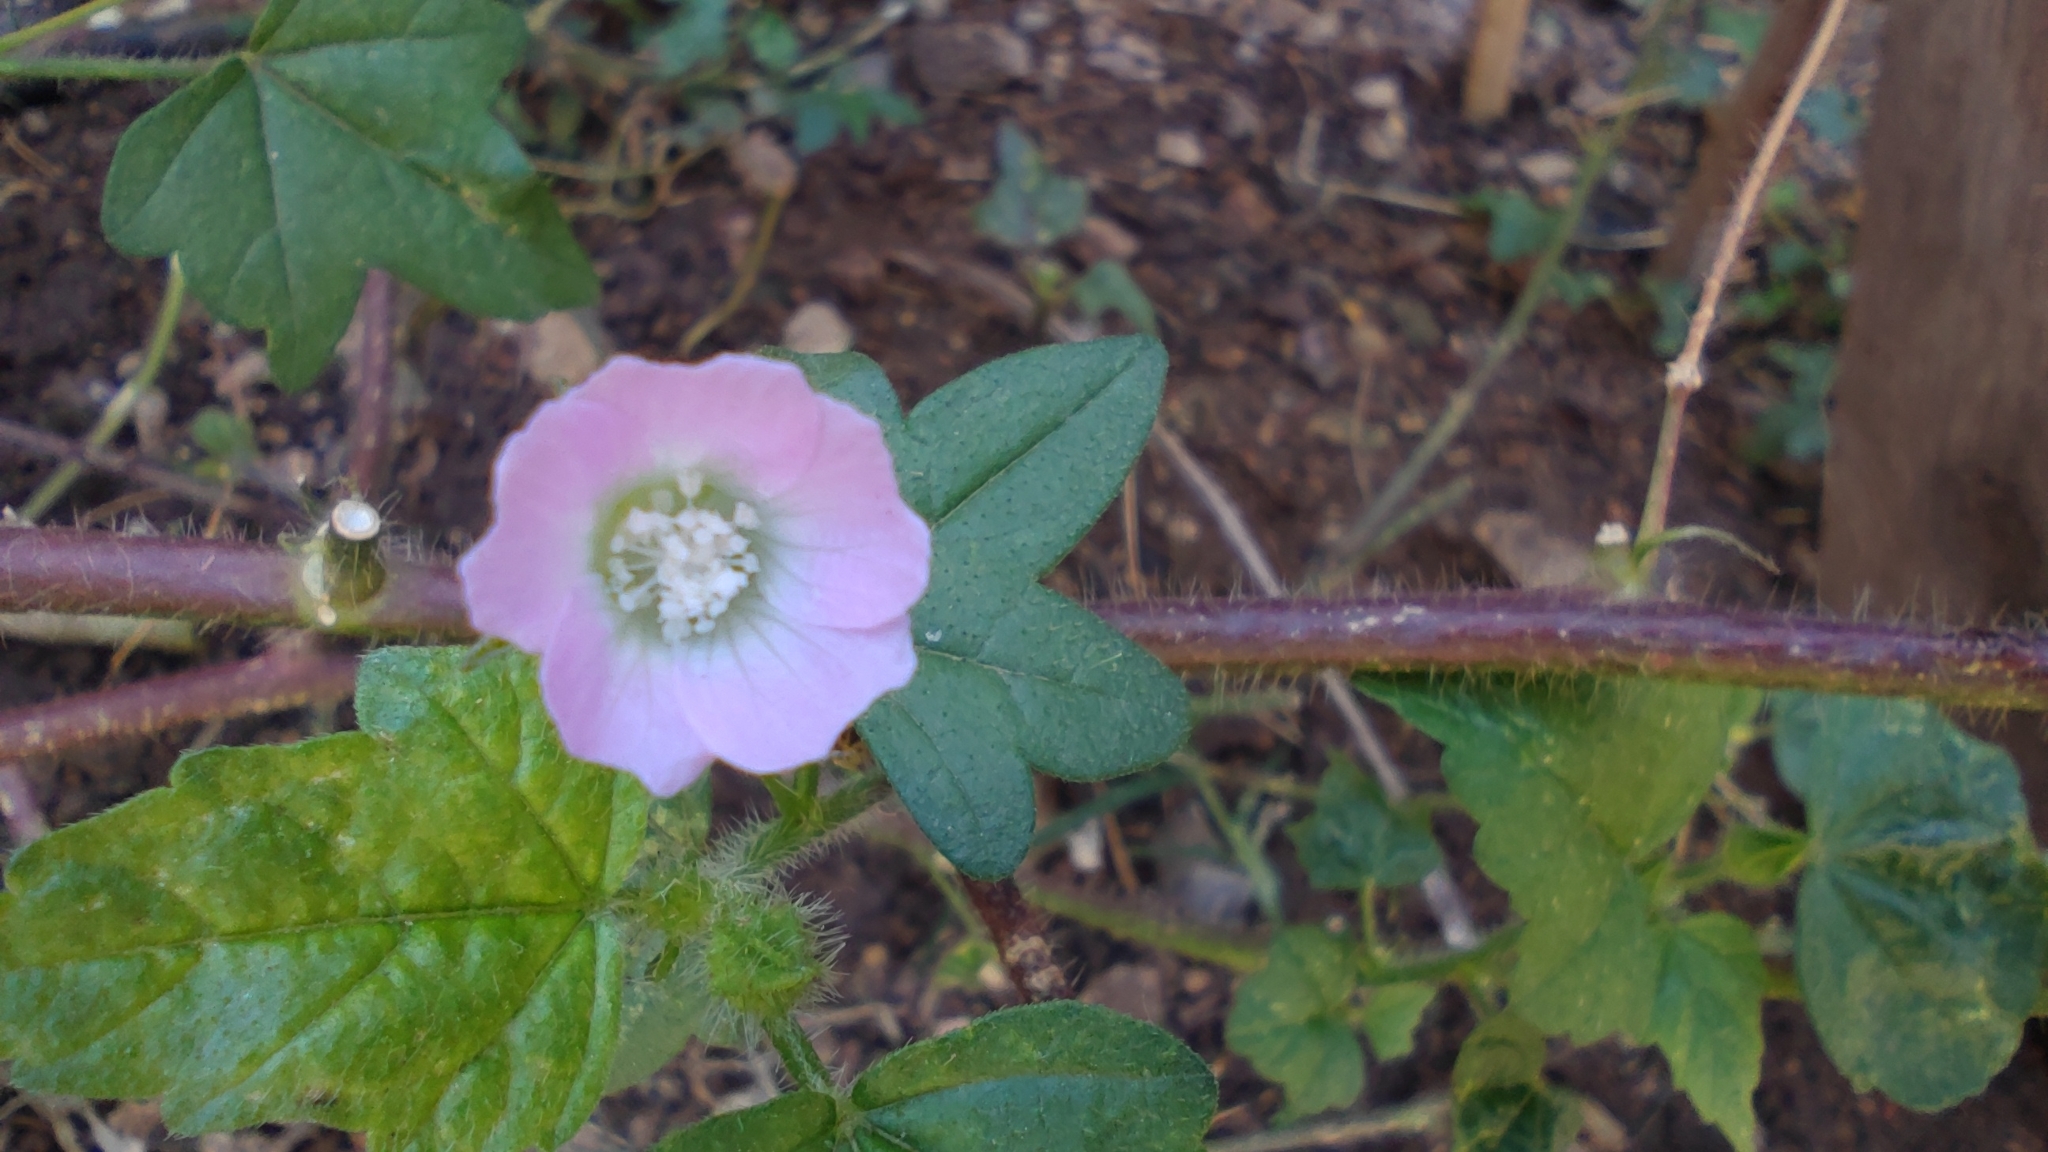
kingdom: Plantae
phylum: Tracheophyta
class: Magnoliopsida
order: Malvales
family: Malvaceae
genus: Anoda
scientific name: Anoda cristata
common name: Spurred anoda
